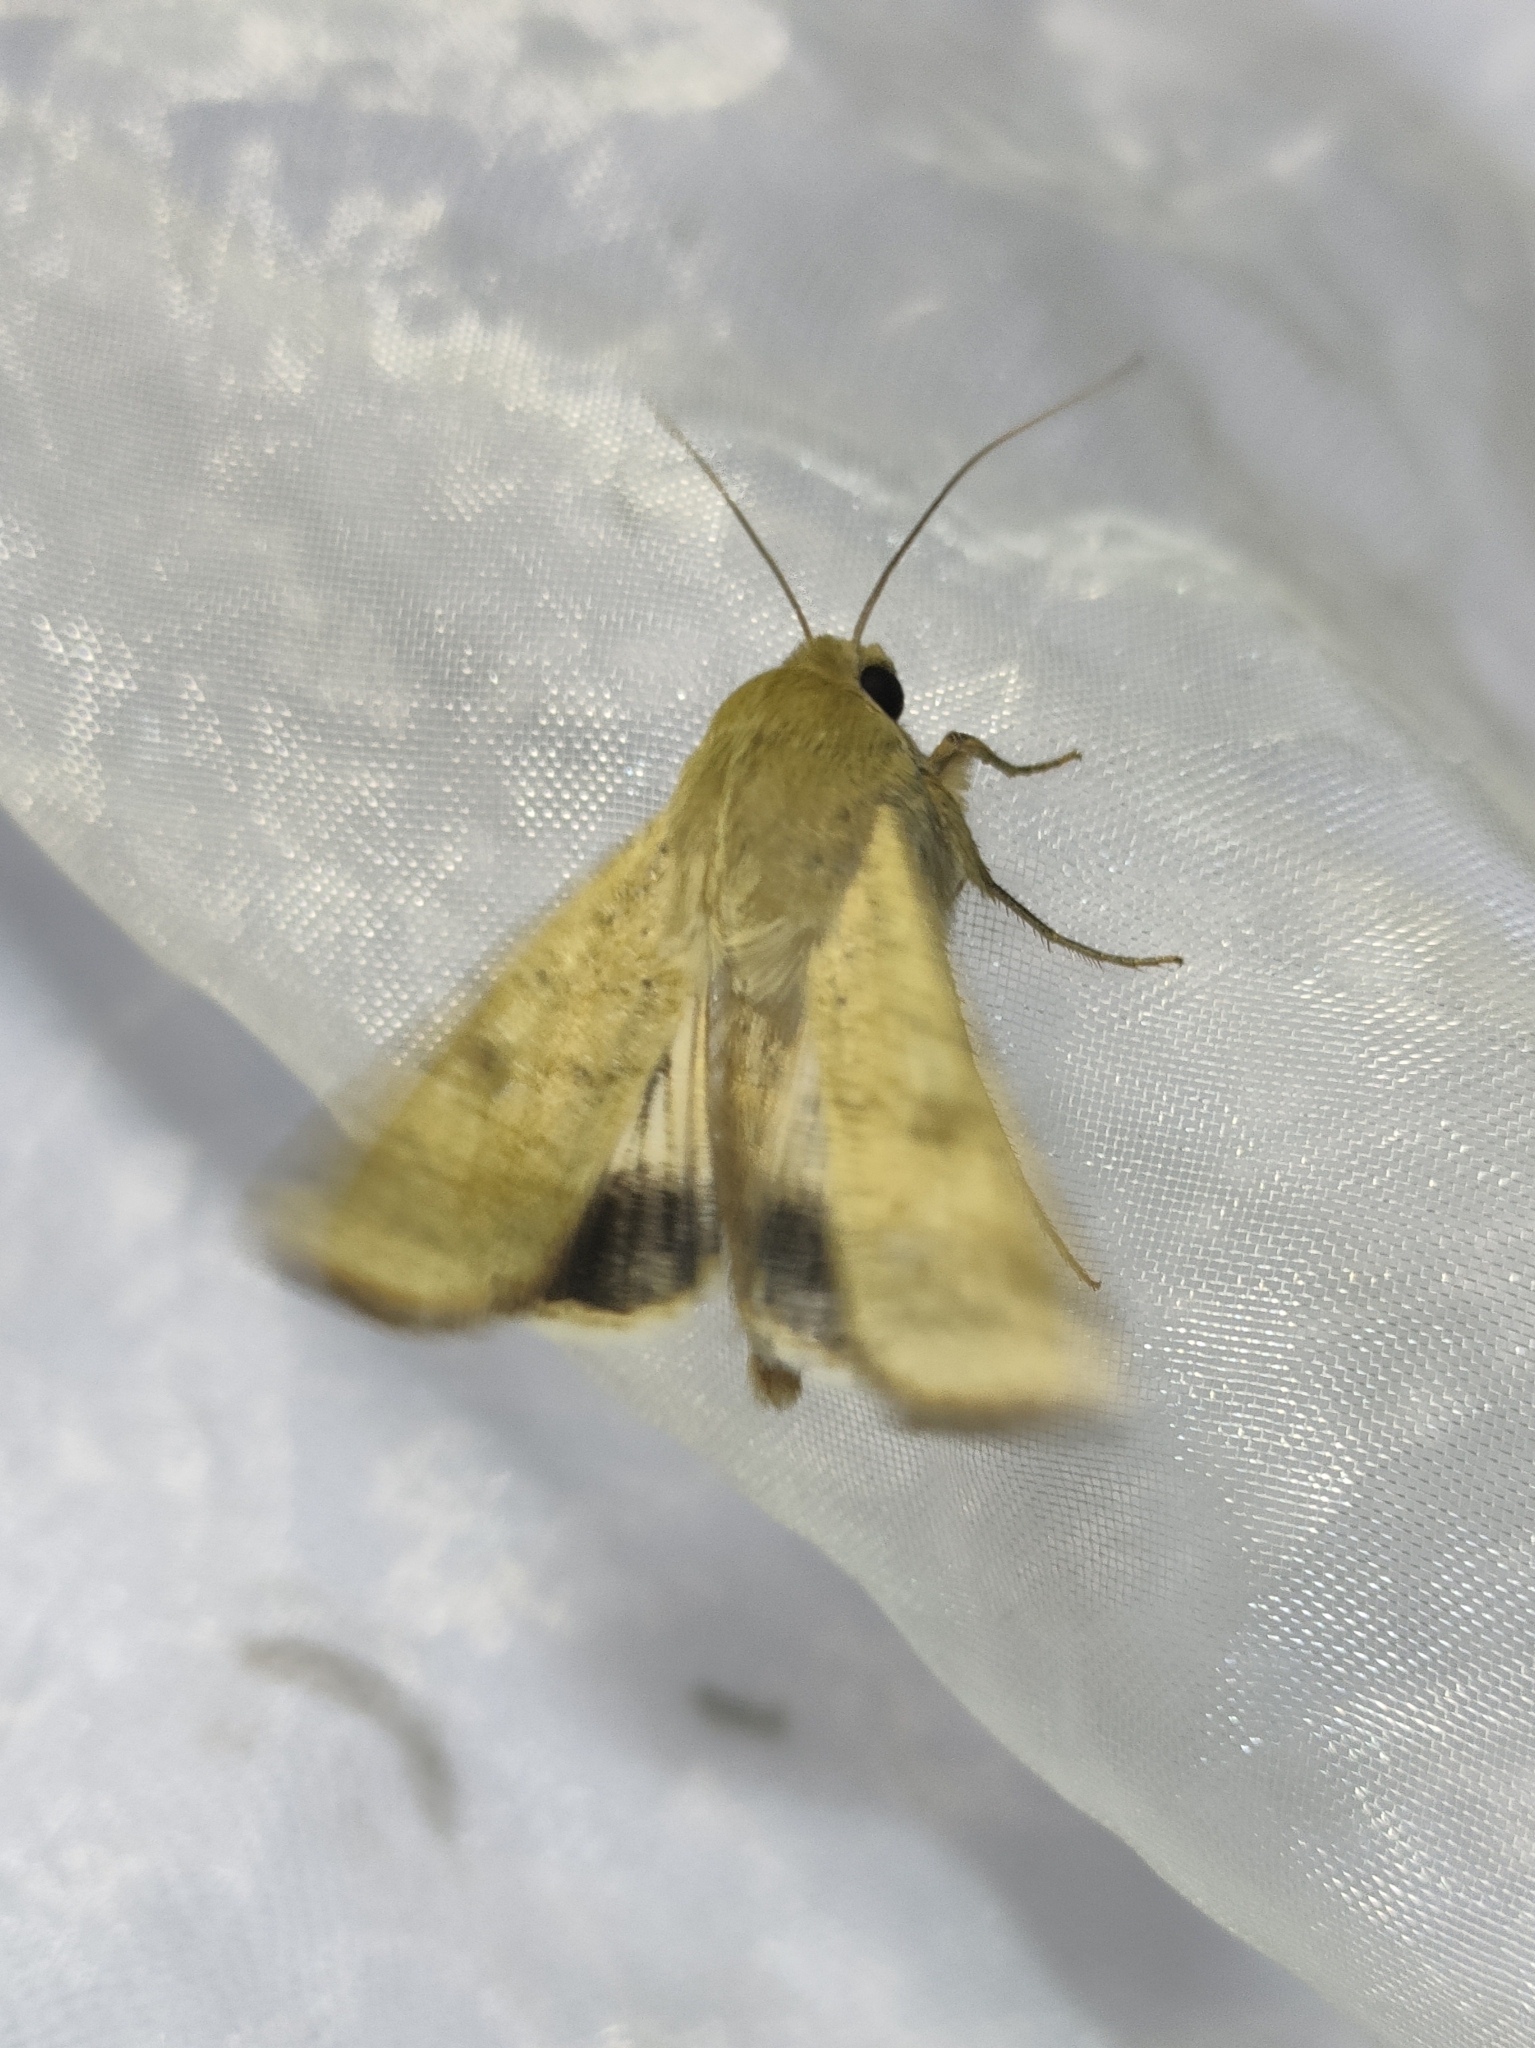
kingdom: Animalia
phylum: Arthropoda
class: Insecta
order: Lepidoptera
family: Noctuidae
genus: Helicoverpa
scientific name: Helicoverpa armigera
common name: Cotton bollworm
